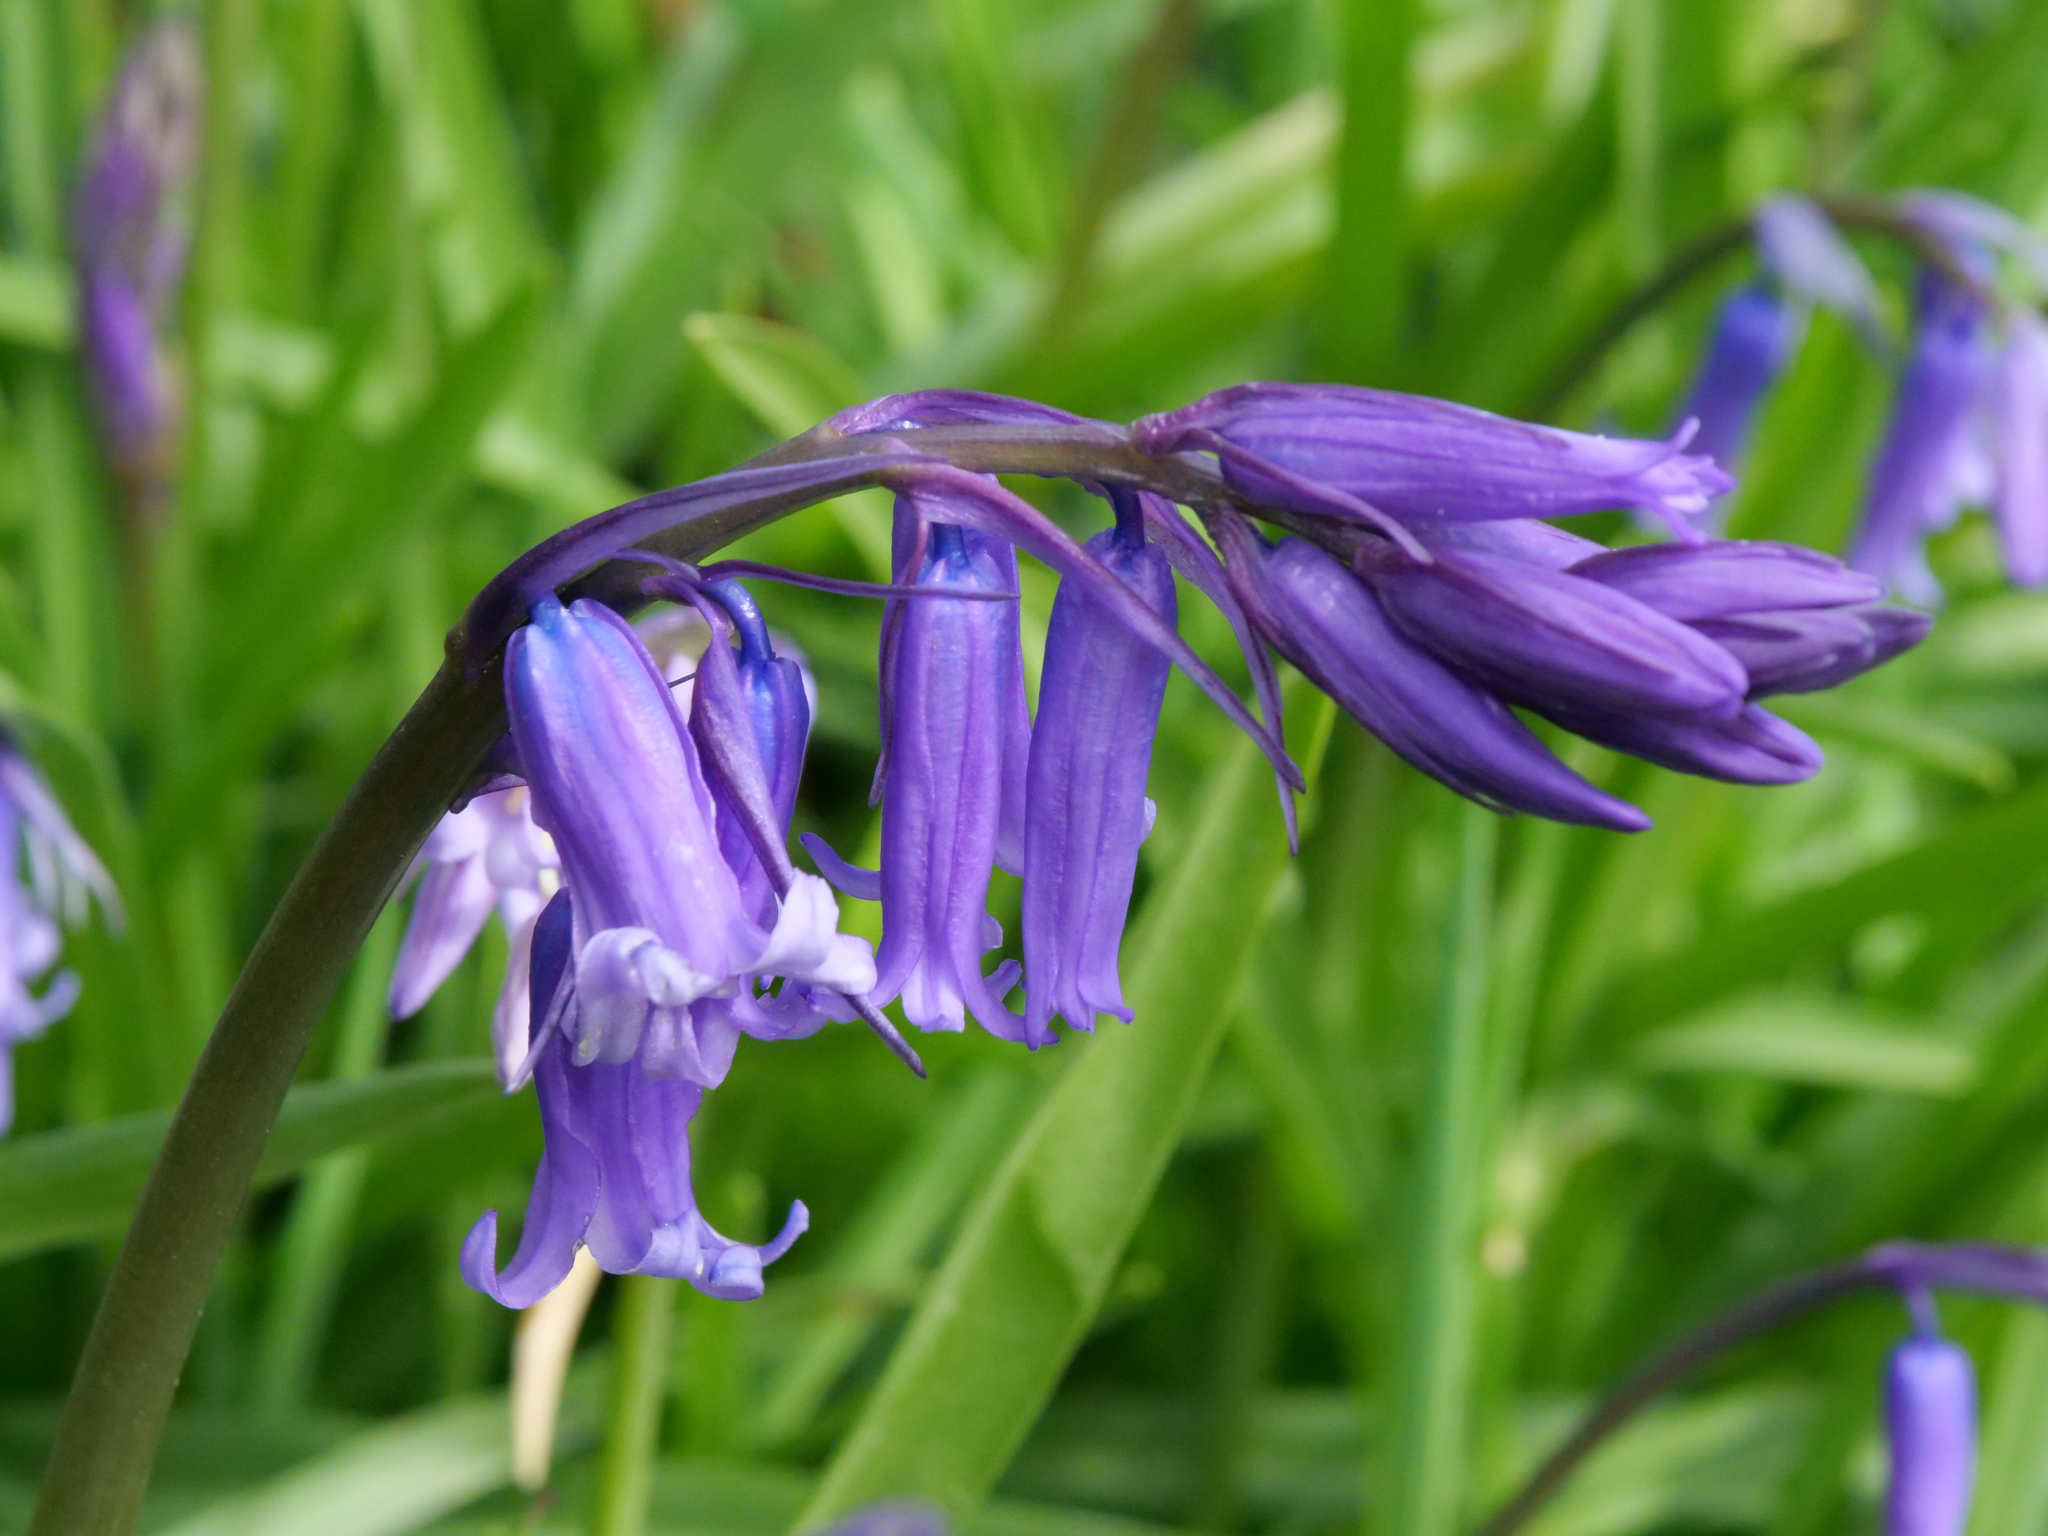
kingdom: Plantae
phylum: Tracheophyta
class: Liliopsida
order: Asparagales
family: Asparagaceae
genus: Hyacinthoides
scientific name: Hyacinthoides non-scripta
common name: Bluebell
